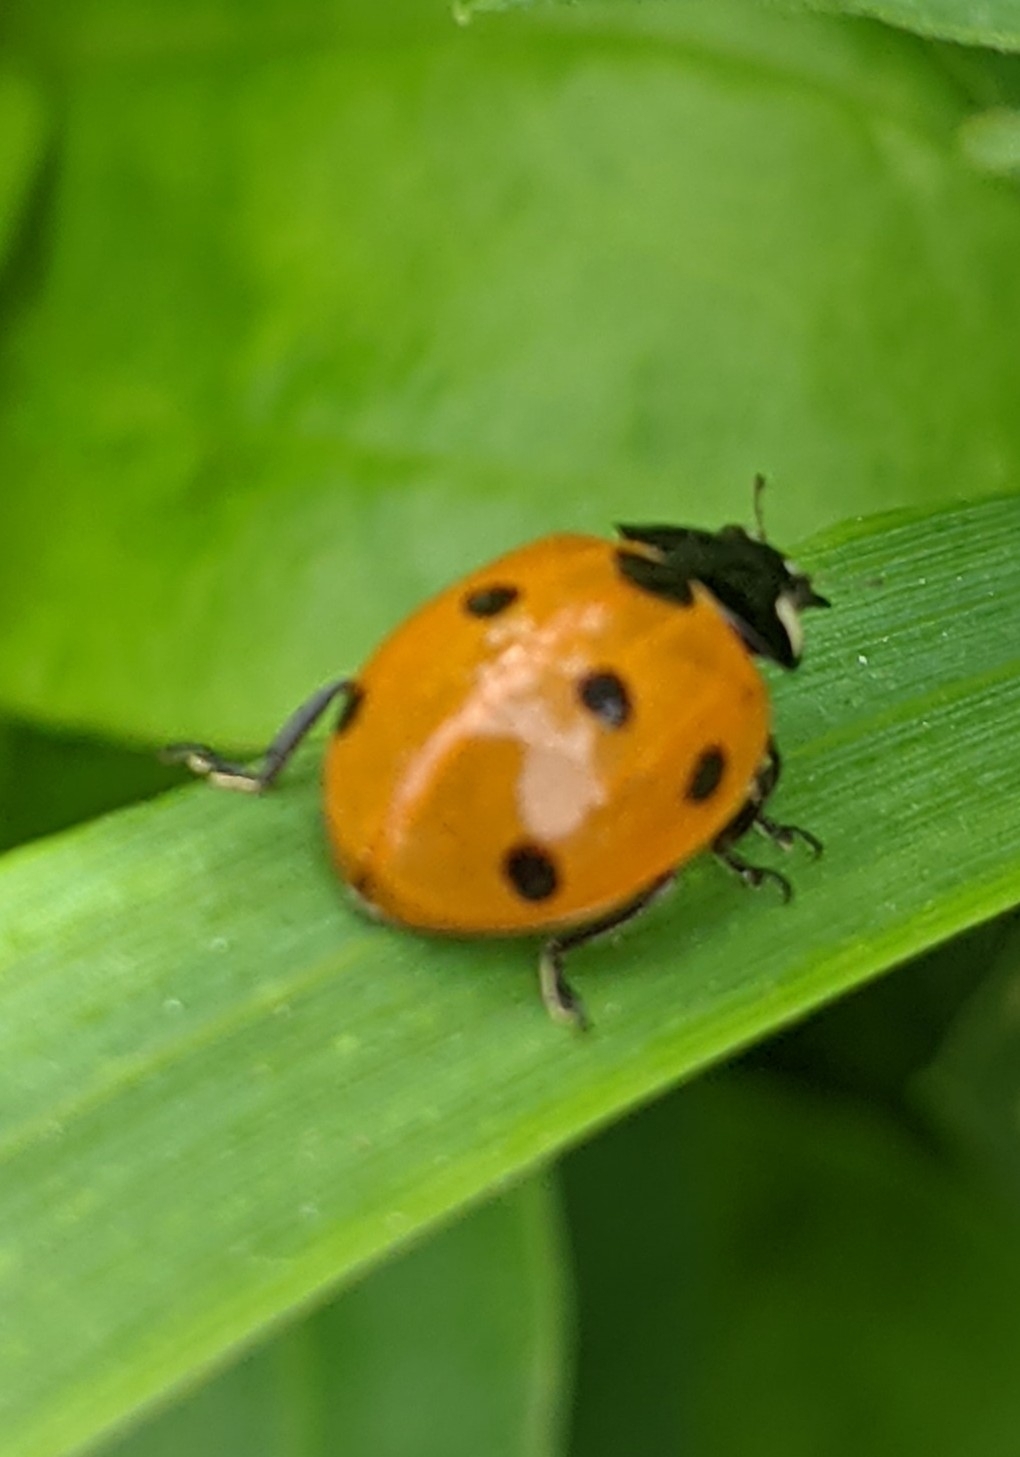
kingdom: Animalia
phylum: Arthropoda
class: Insecta
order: Coleoptera
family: Coccinellidae
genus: Coccinella
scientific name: Coccinella septempunctata
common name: Sevenspotted lady beetle
